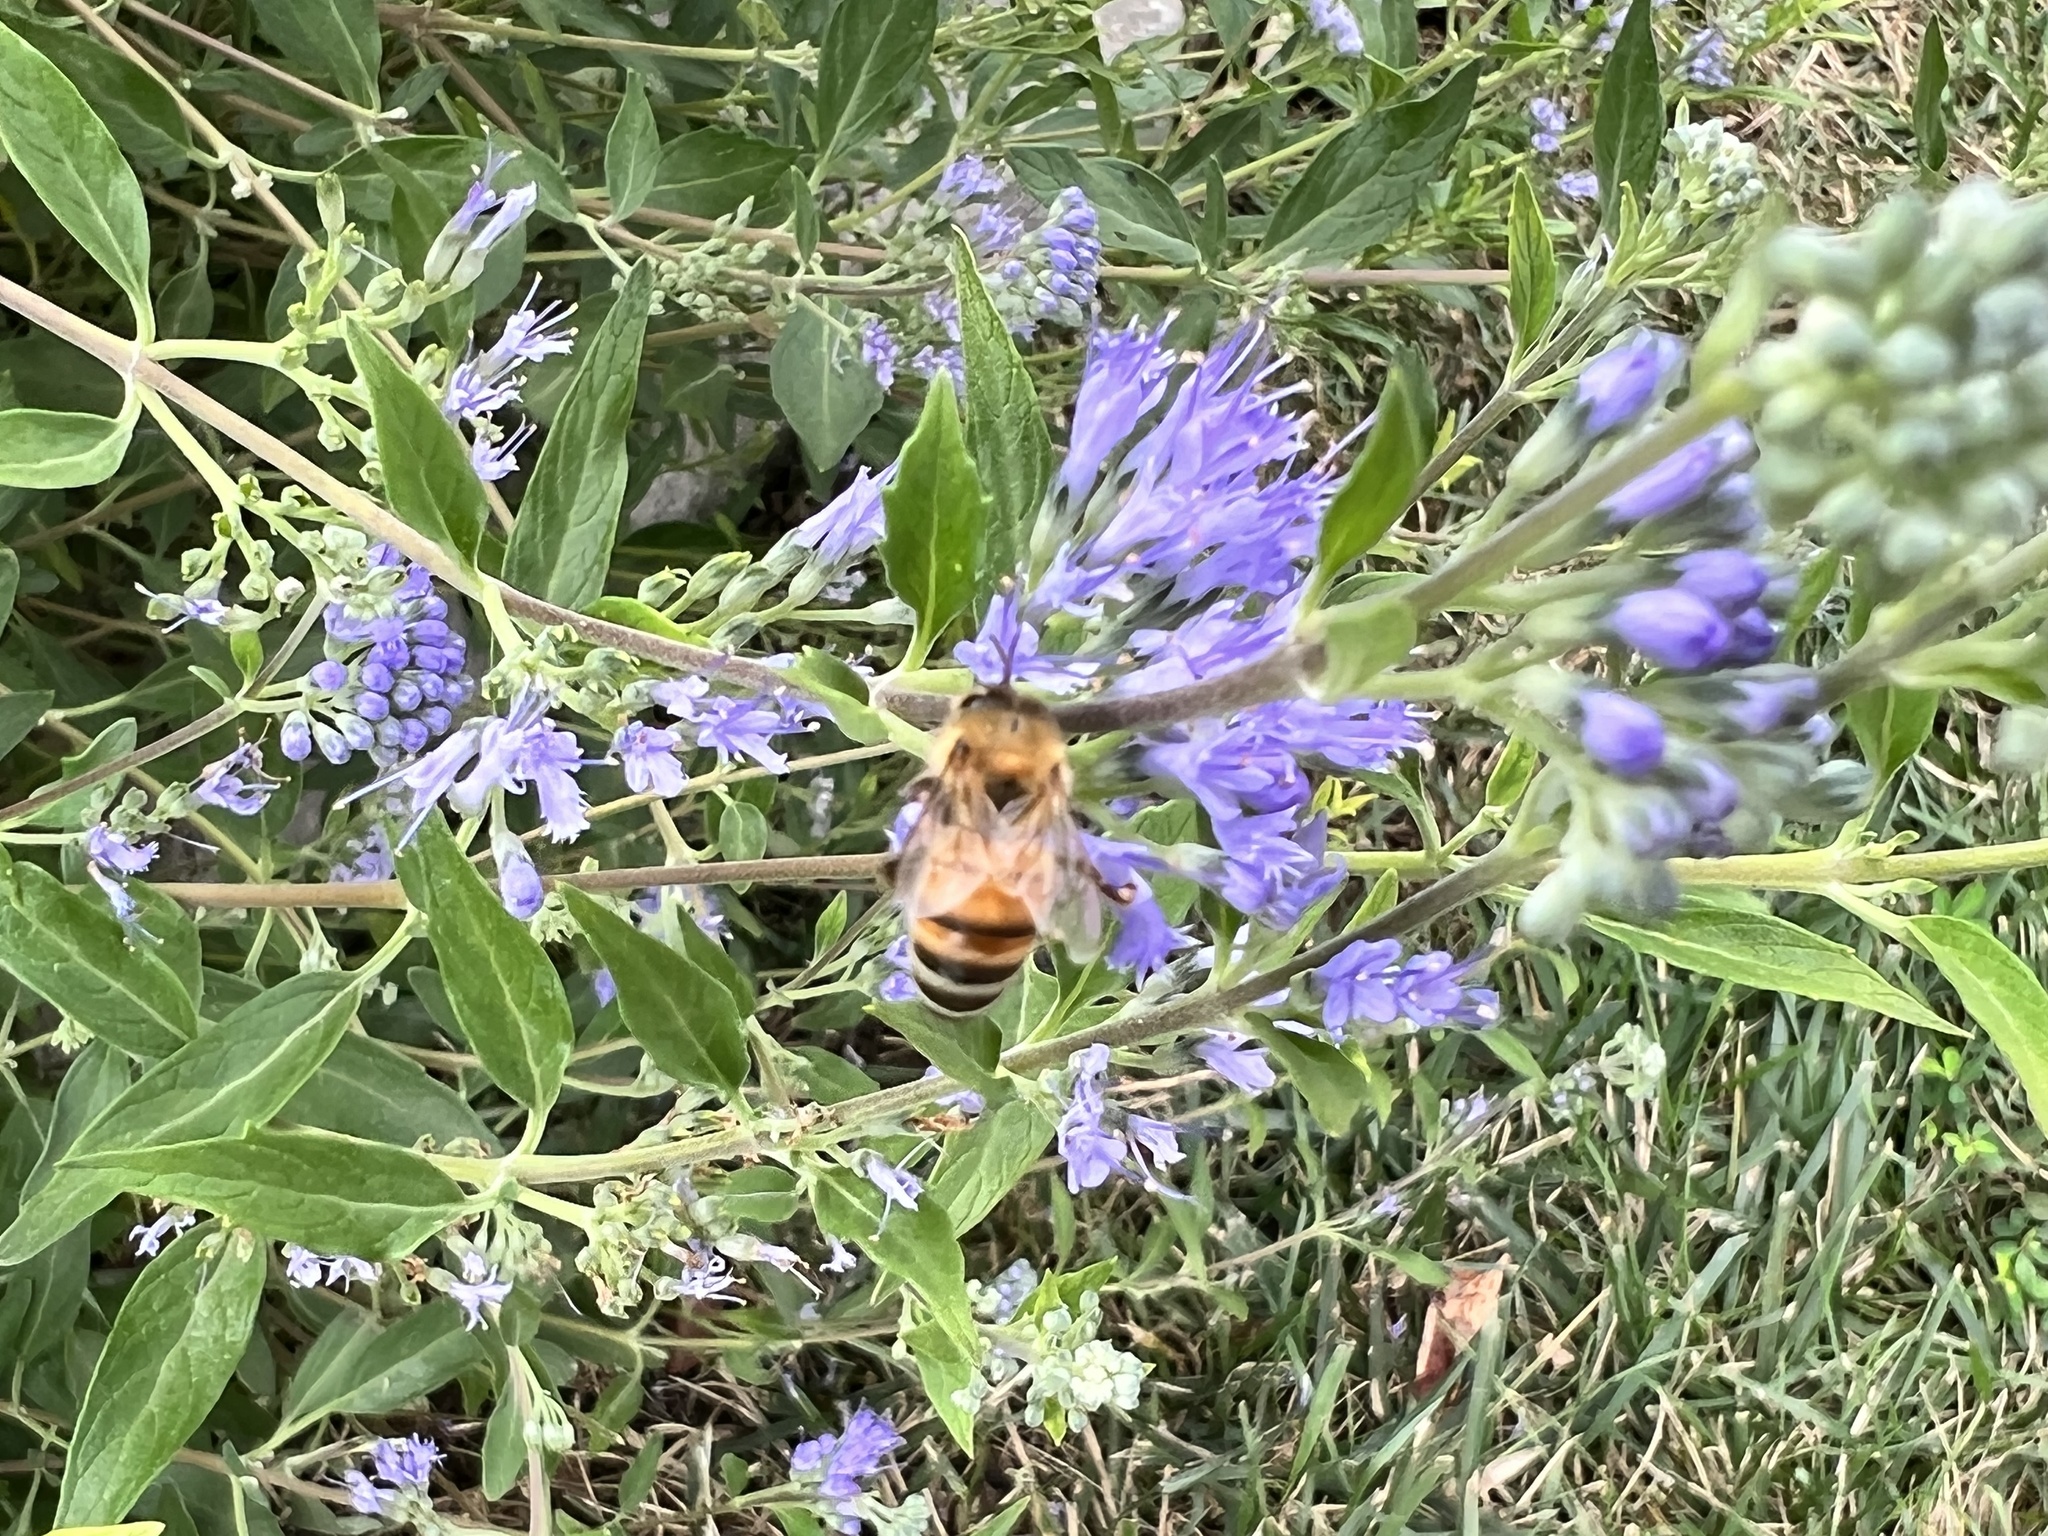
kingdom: Animalia
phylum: Arthropoda
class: Insecta
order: Hymenoptera
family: Apidae
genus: Apis
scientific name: Apis mellifera
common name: Honey bee
